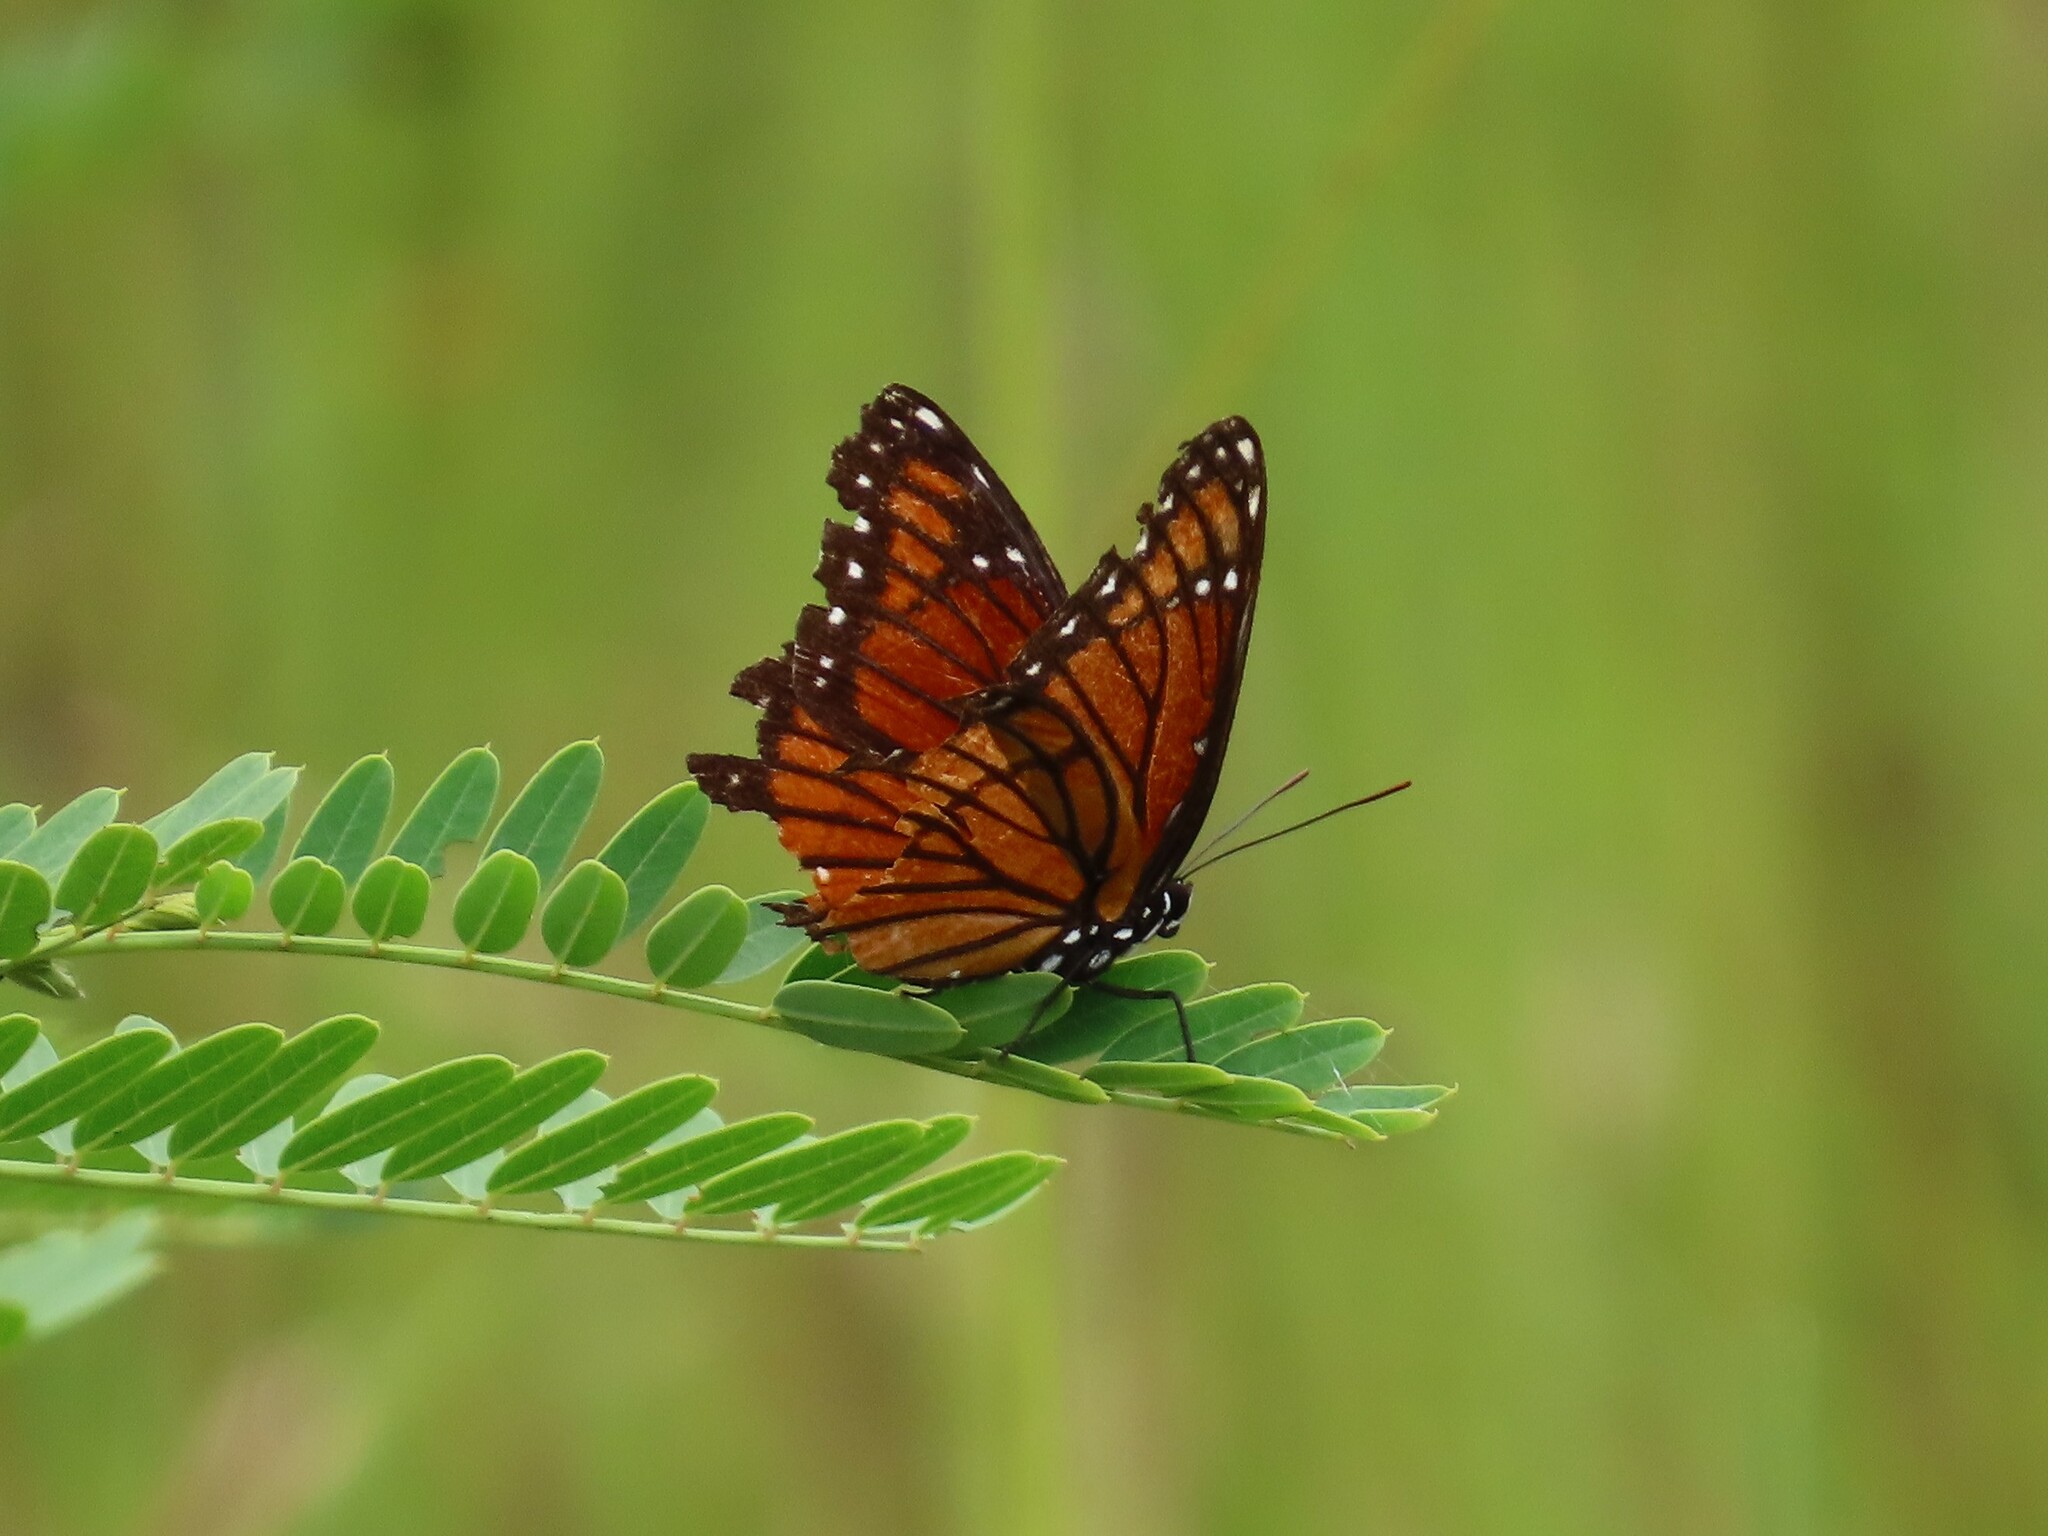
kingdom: Animalia
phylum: Arthropoda
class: Insecta
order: Lepidoptera
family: Nymphalidae
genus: Limenitis
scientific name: Limenitis archippus
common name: Viceroy
